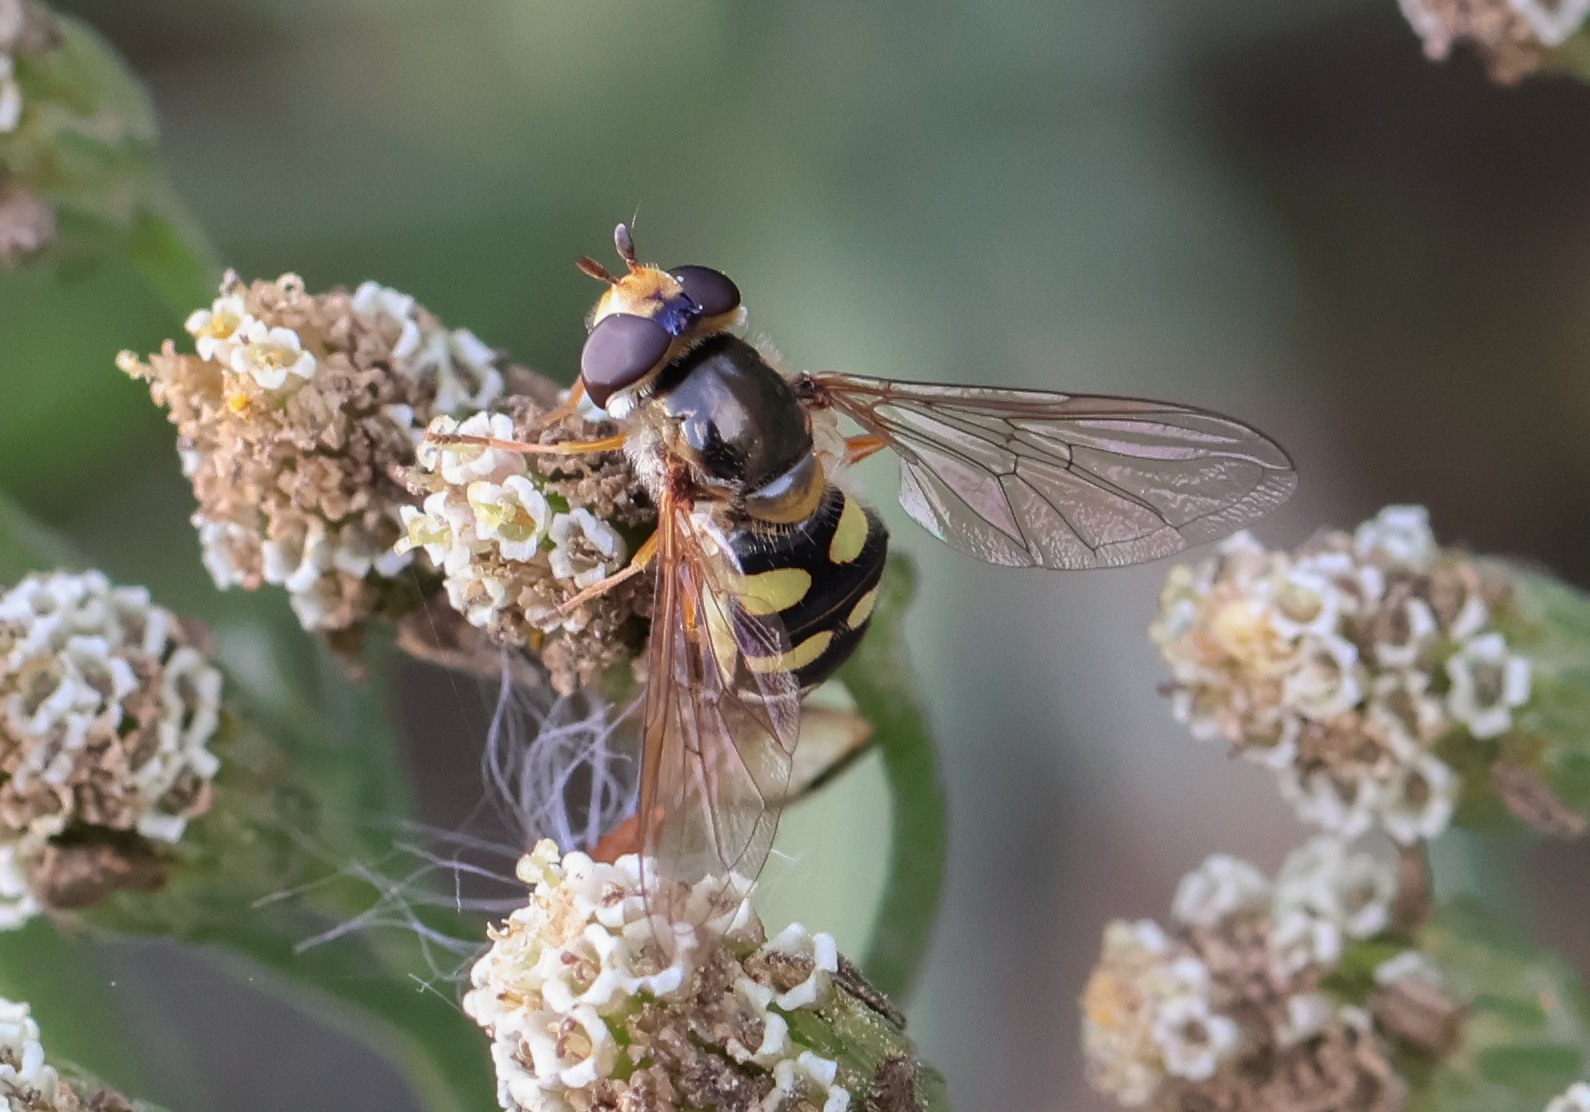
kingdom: Animalia
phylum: Arthropoda
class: Insecta
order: Diptera
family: Syrphidae
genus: Eupeodes
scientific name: Eupeodes luniger
